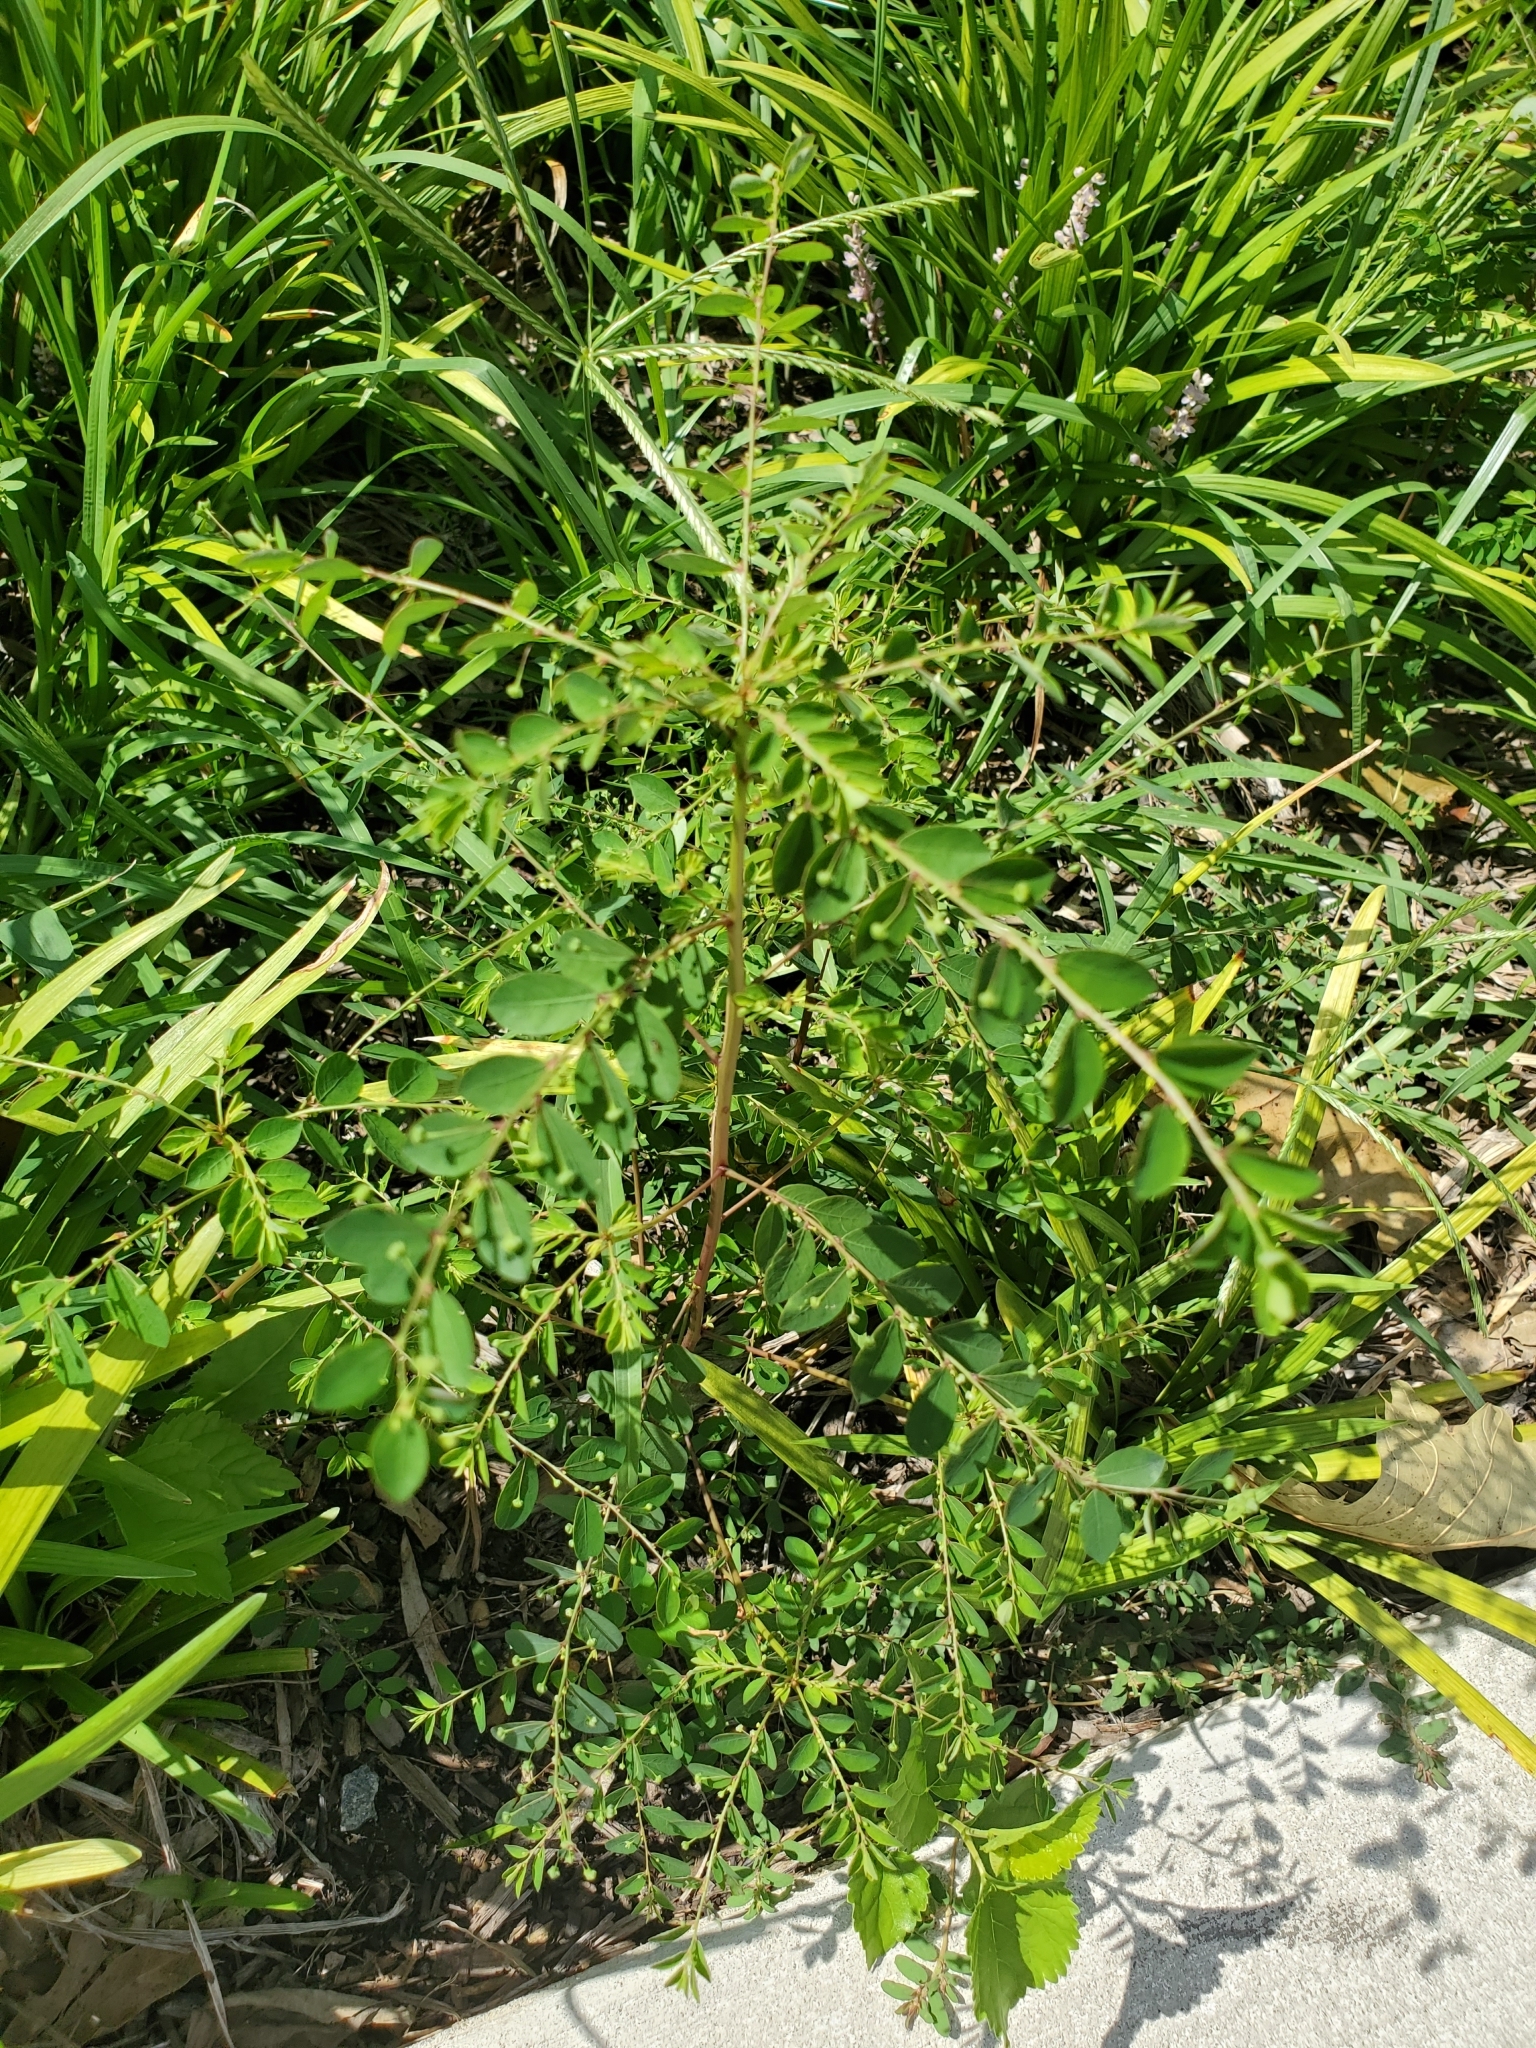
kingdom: Plantae
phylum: Tracheophyta
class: Magnoliopsida
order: Malpighiales
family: Phyllanthaceae
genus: Phyllanthus
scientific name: Phyllanthus tenellus
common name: Mascarene island leaf-flower
